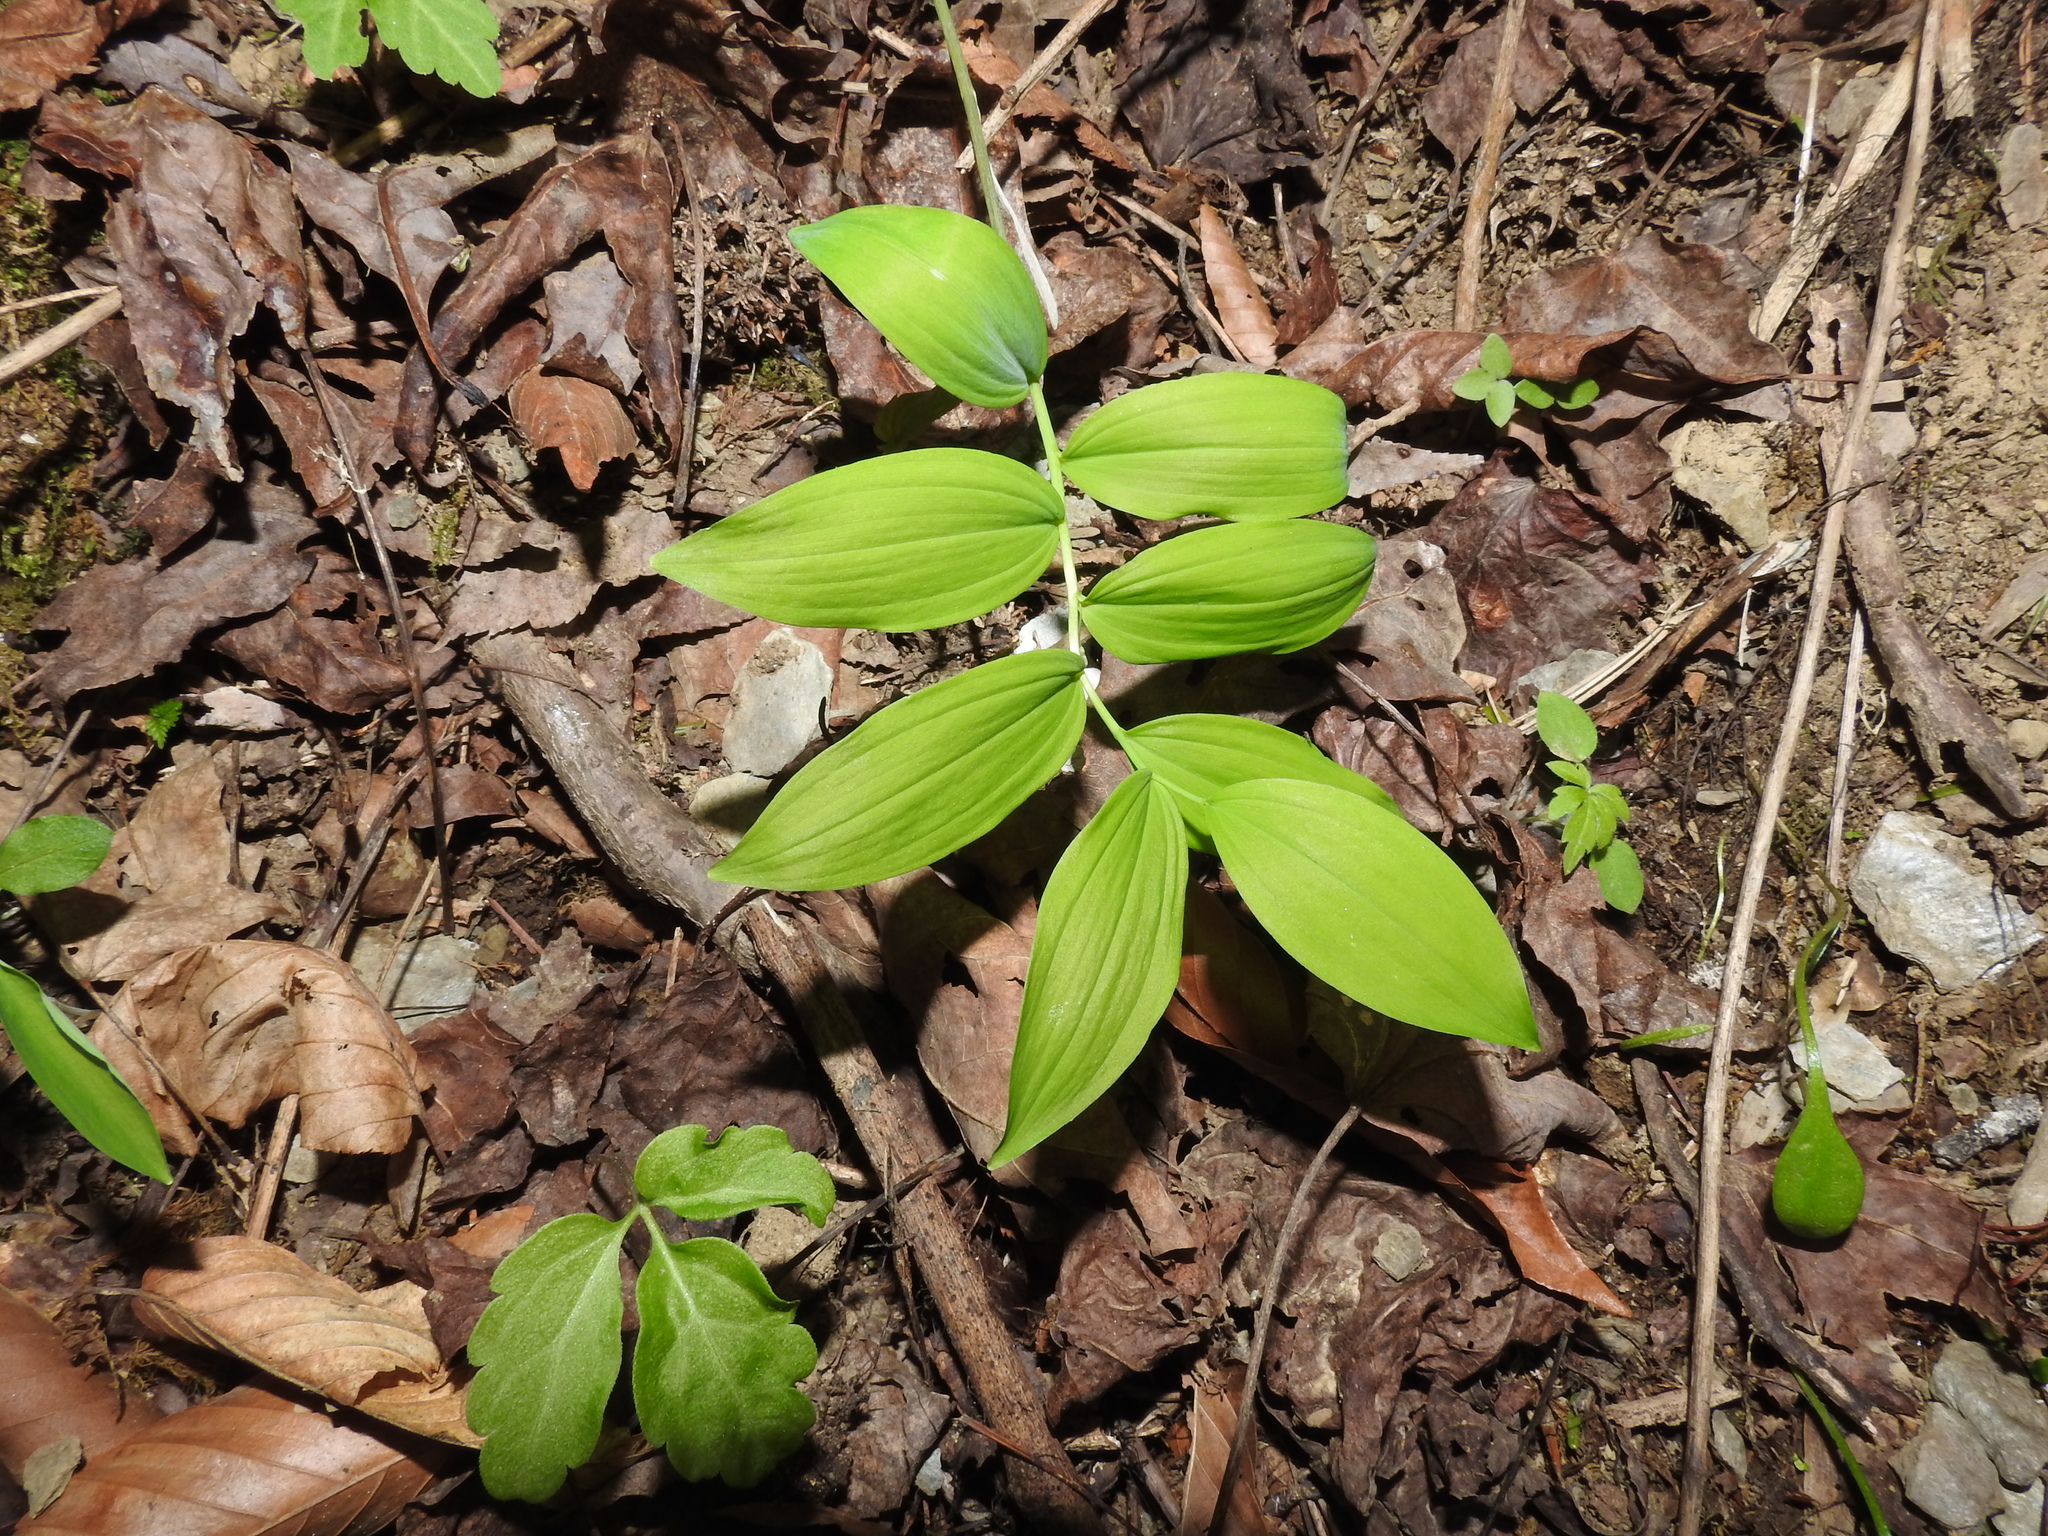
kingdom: Plantae
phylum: Tracheophyta
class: Liliopsida
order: Asparagales
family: Asparagaceae
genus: Polygonatum
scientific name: Polygonatum pubescens
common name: Downy solomon's seal
